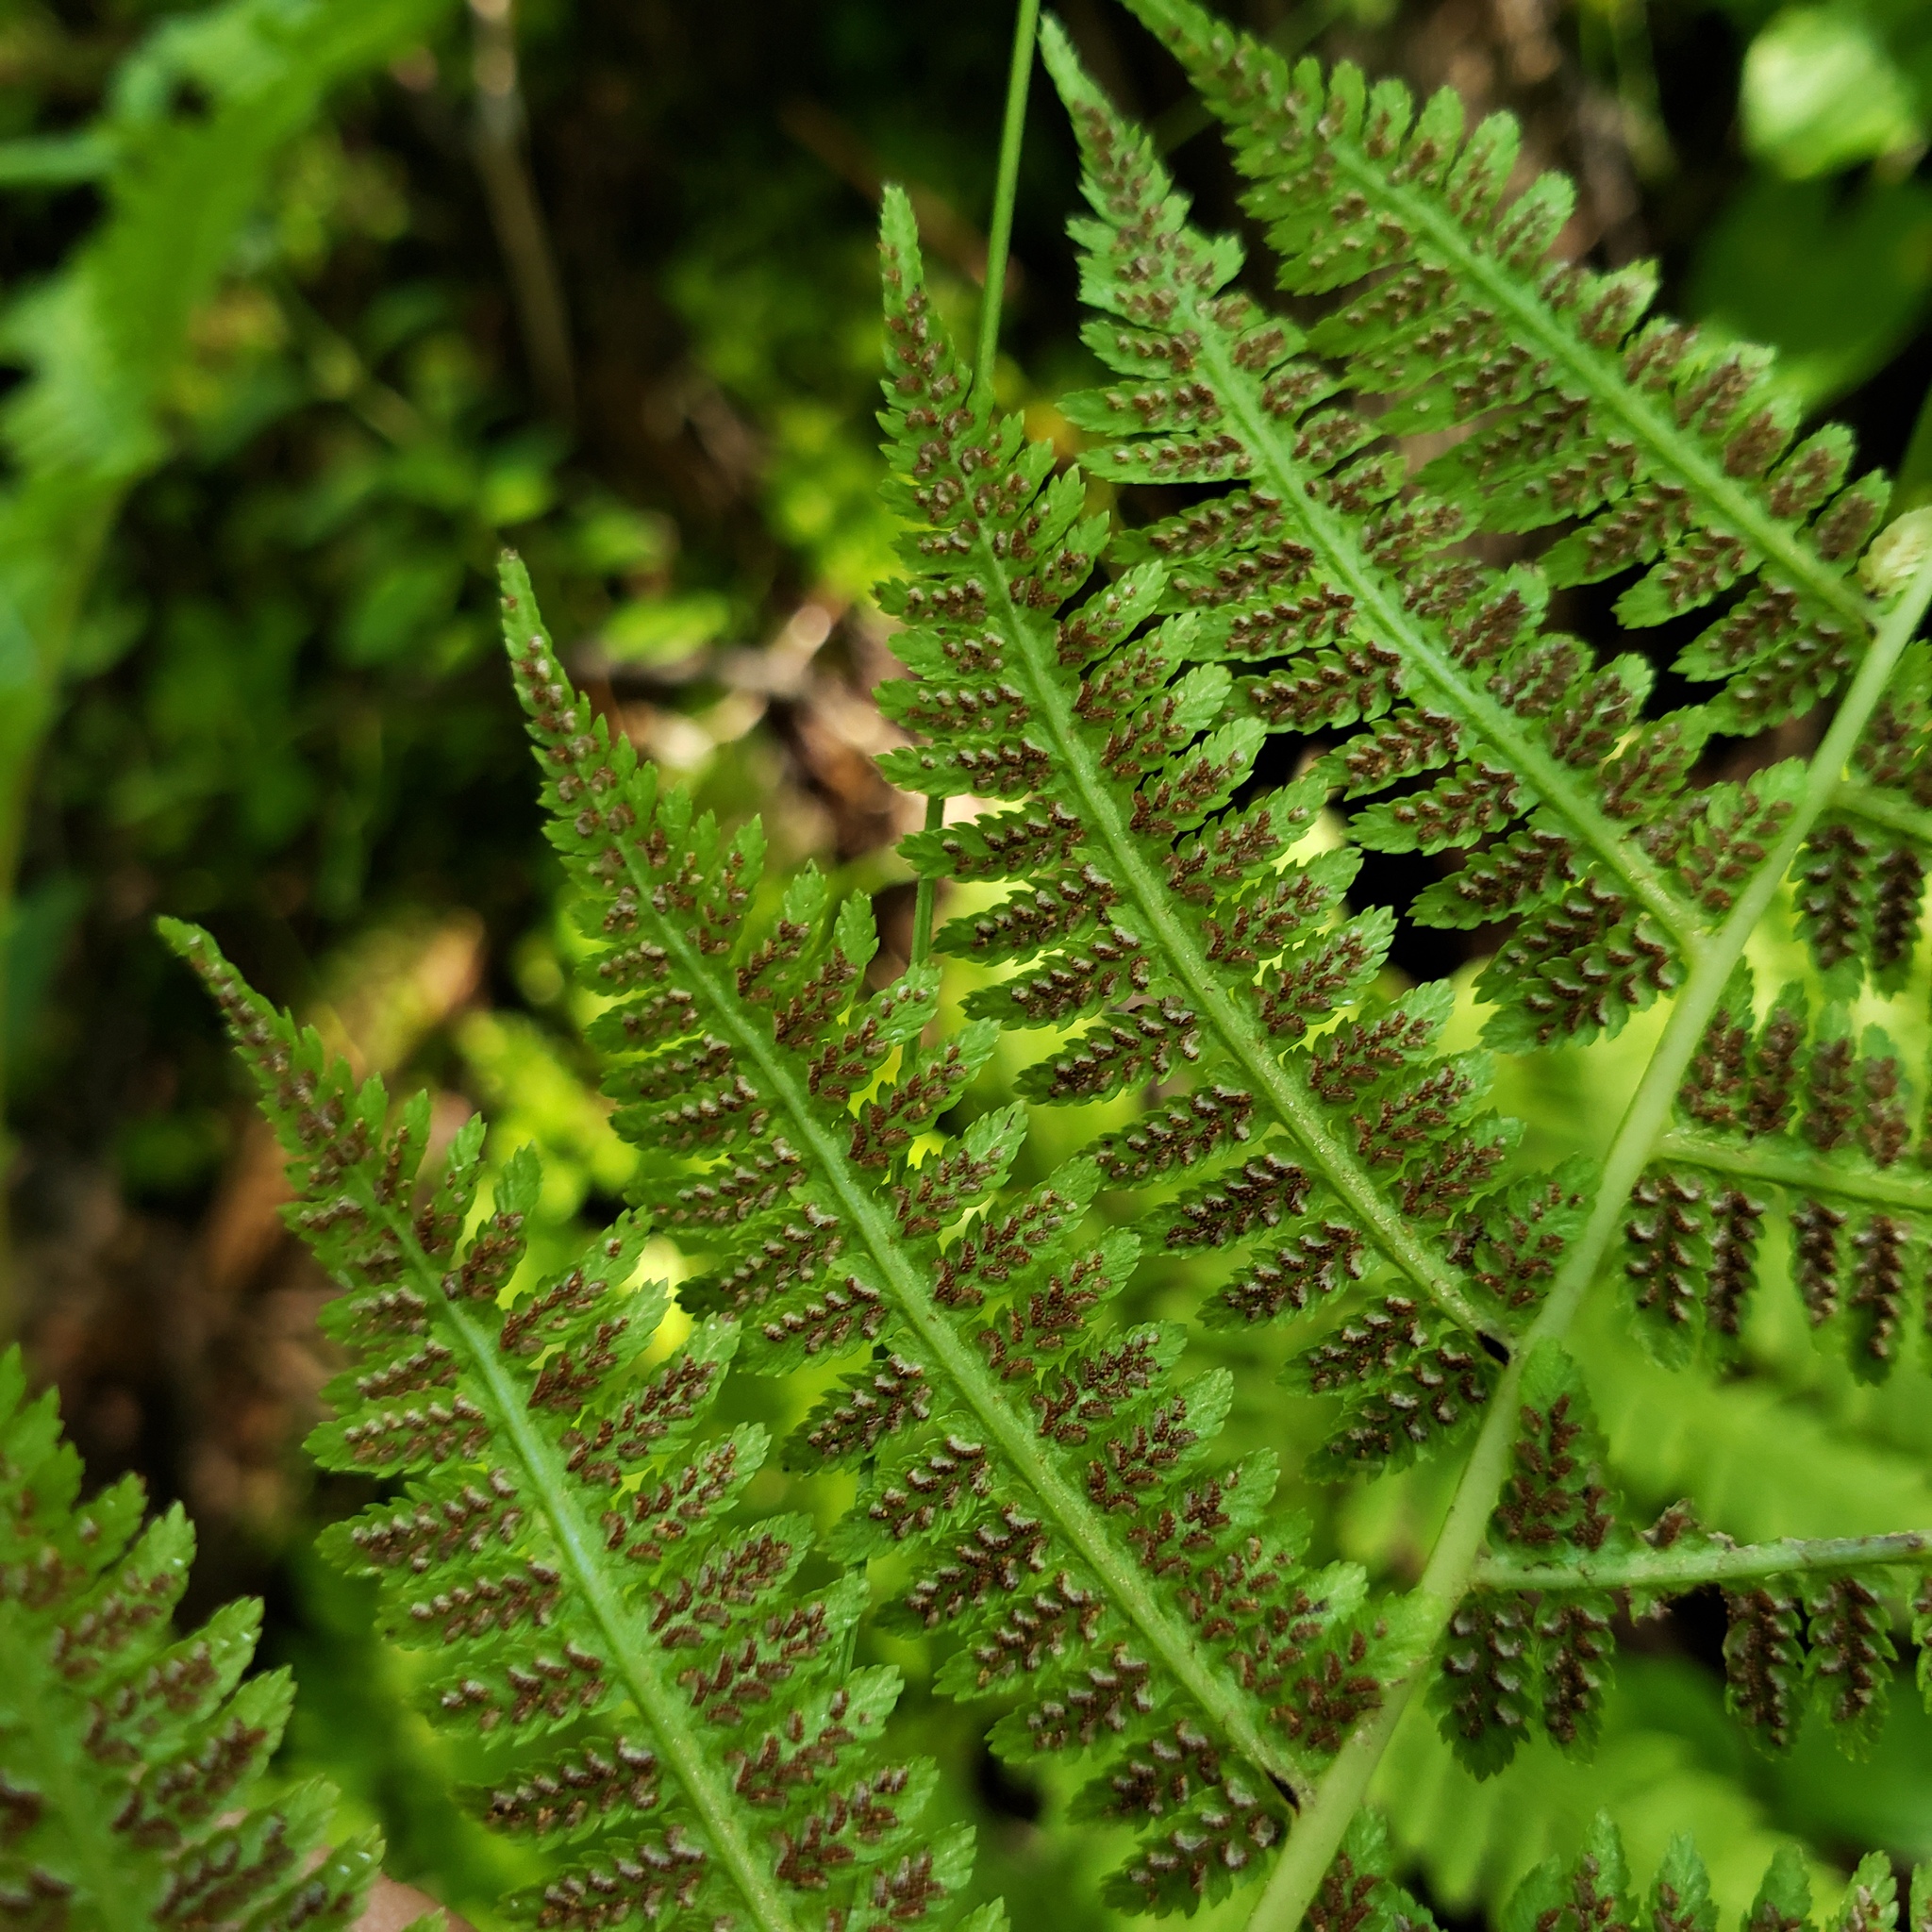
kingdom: Plantae
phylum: Tracheophyta
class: Polypodiopsida
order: Polypodiales
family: Athyriaceae
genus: Athyrium
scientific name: Athyrium angustum
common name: Northern lady fern
